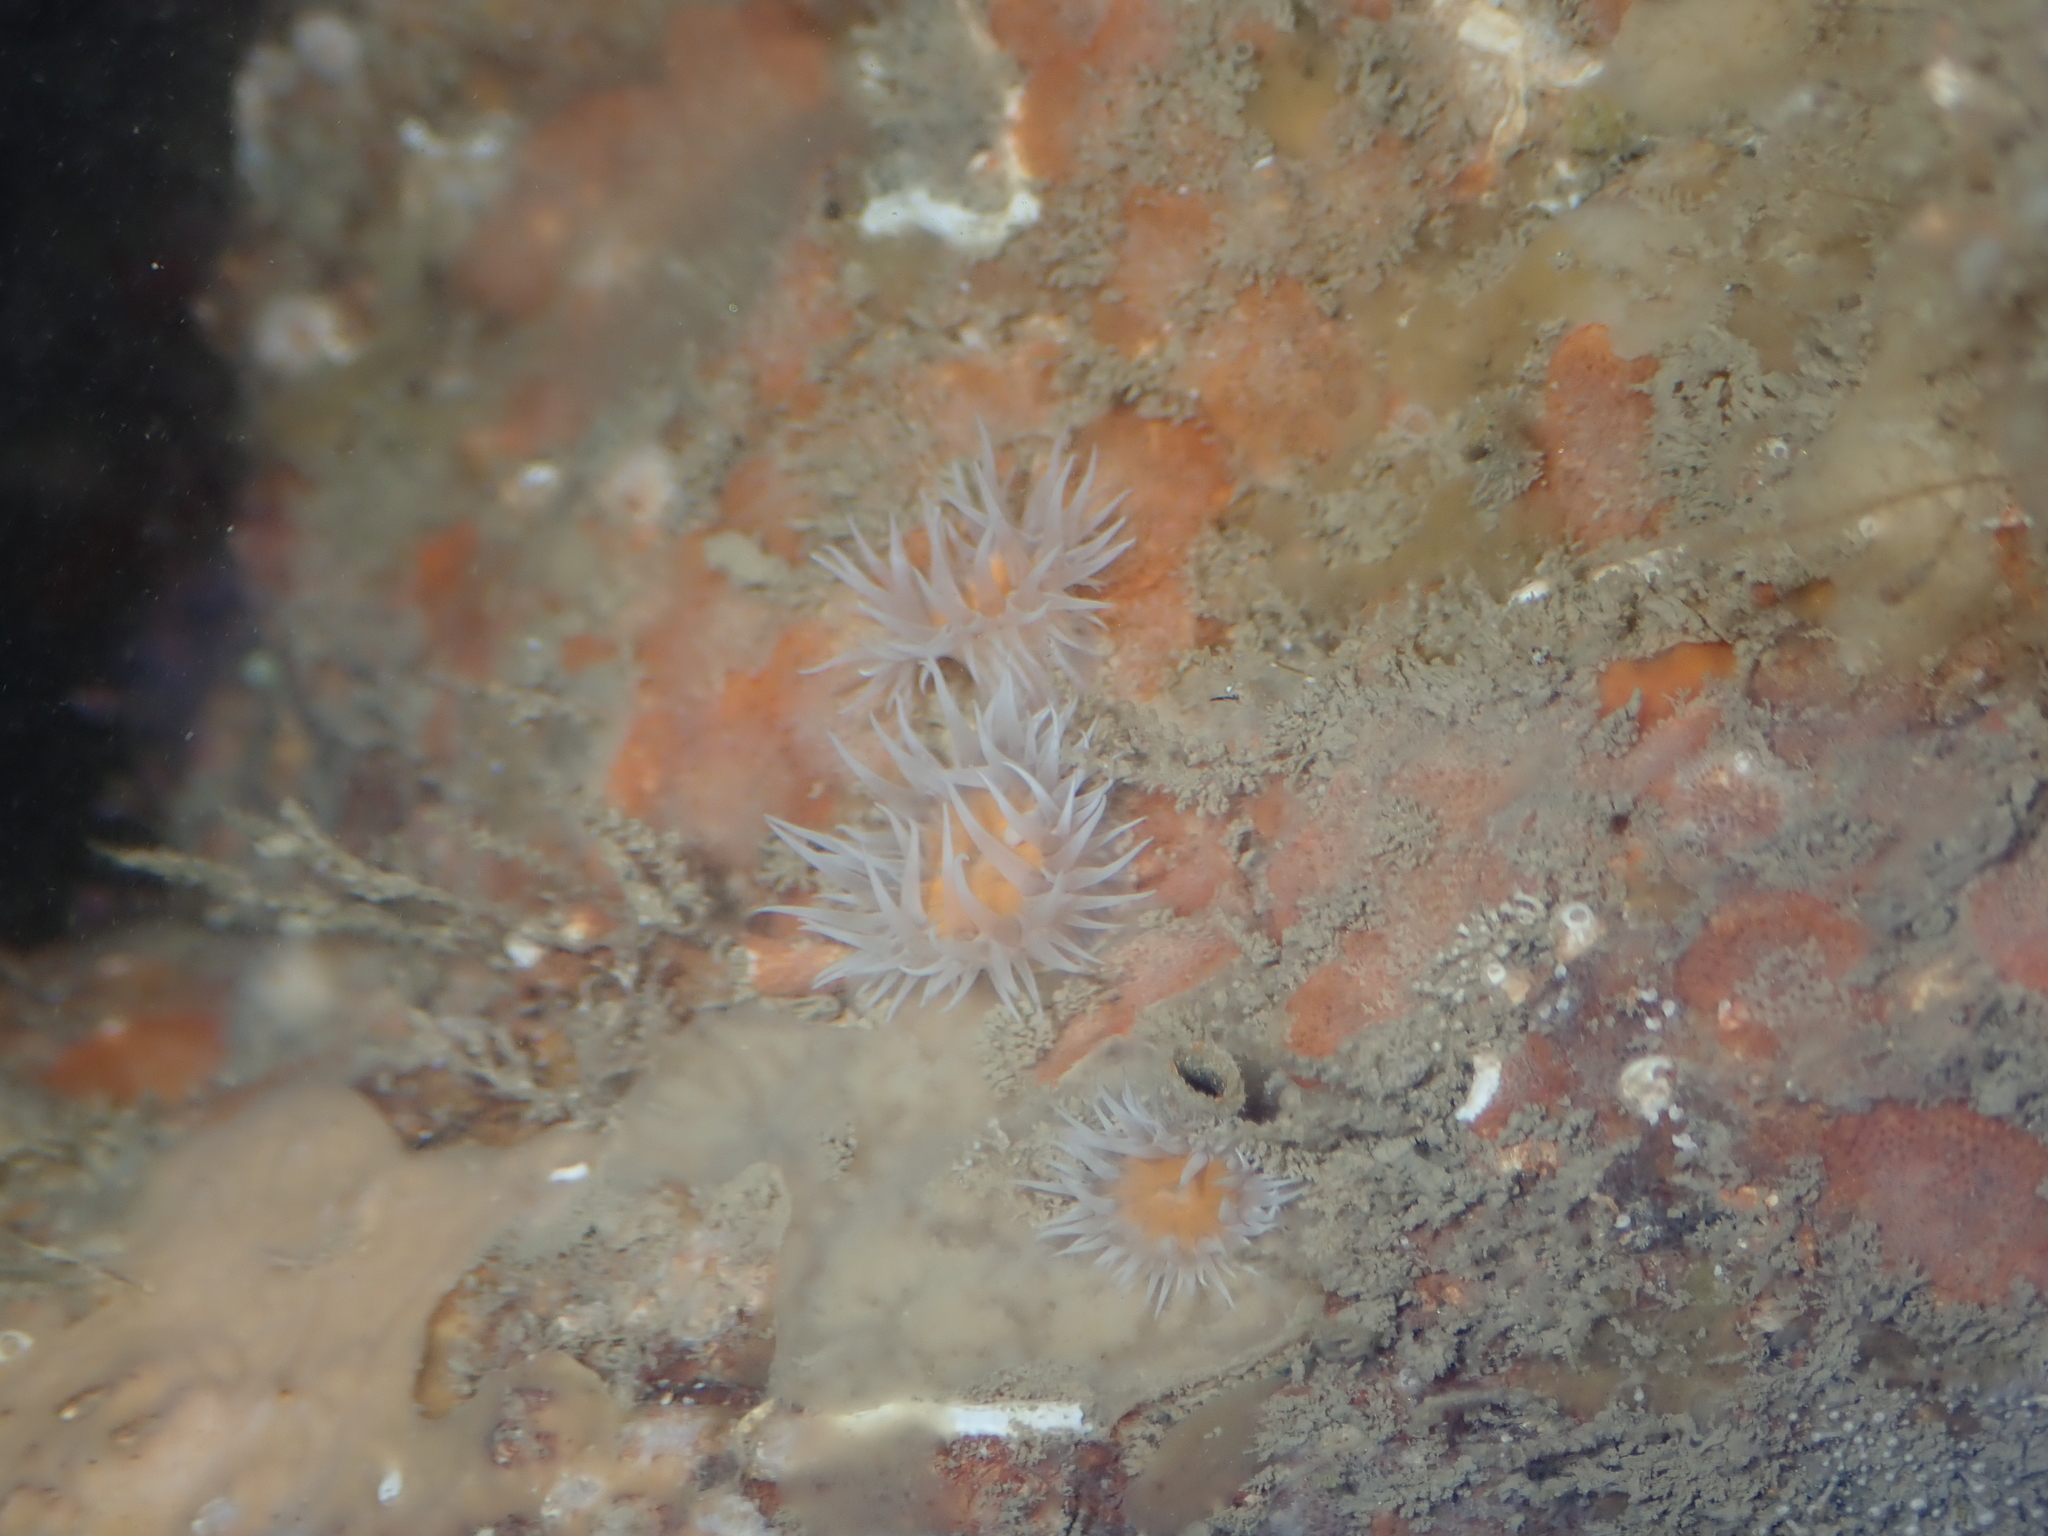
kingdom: Animalia
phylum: Cnidaria
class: Anthozoa
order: Actiniaria
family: Sagartiidae
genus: Actinothoe
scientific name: Actinothoe sphyrodeta
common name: Sandalled anemone
